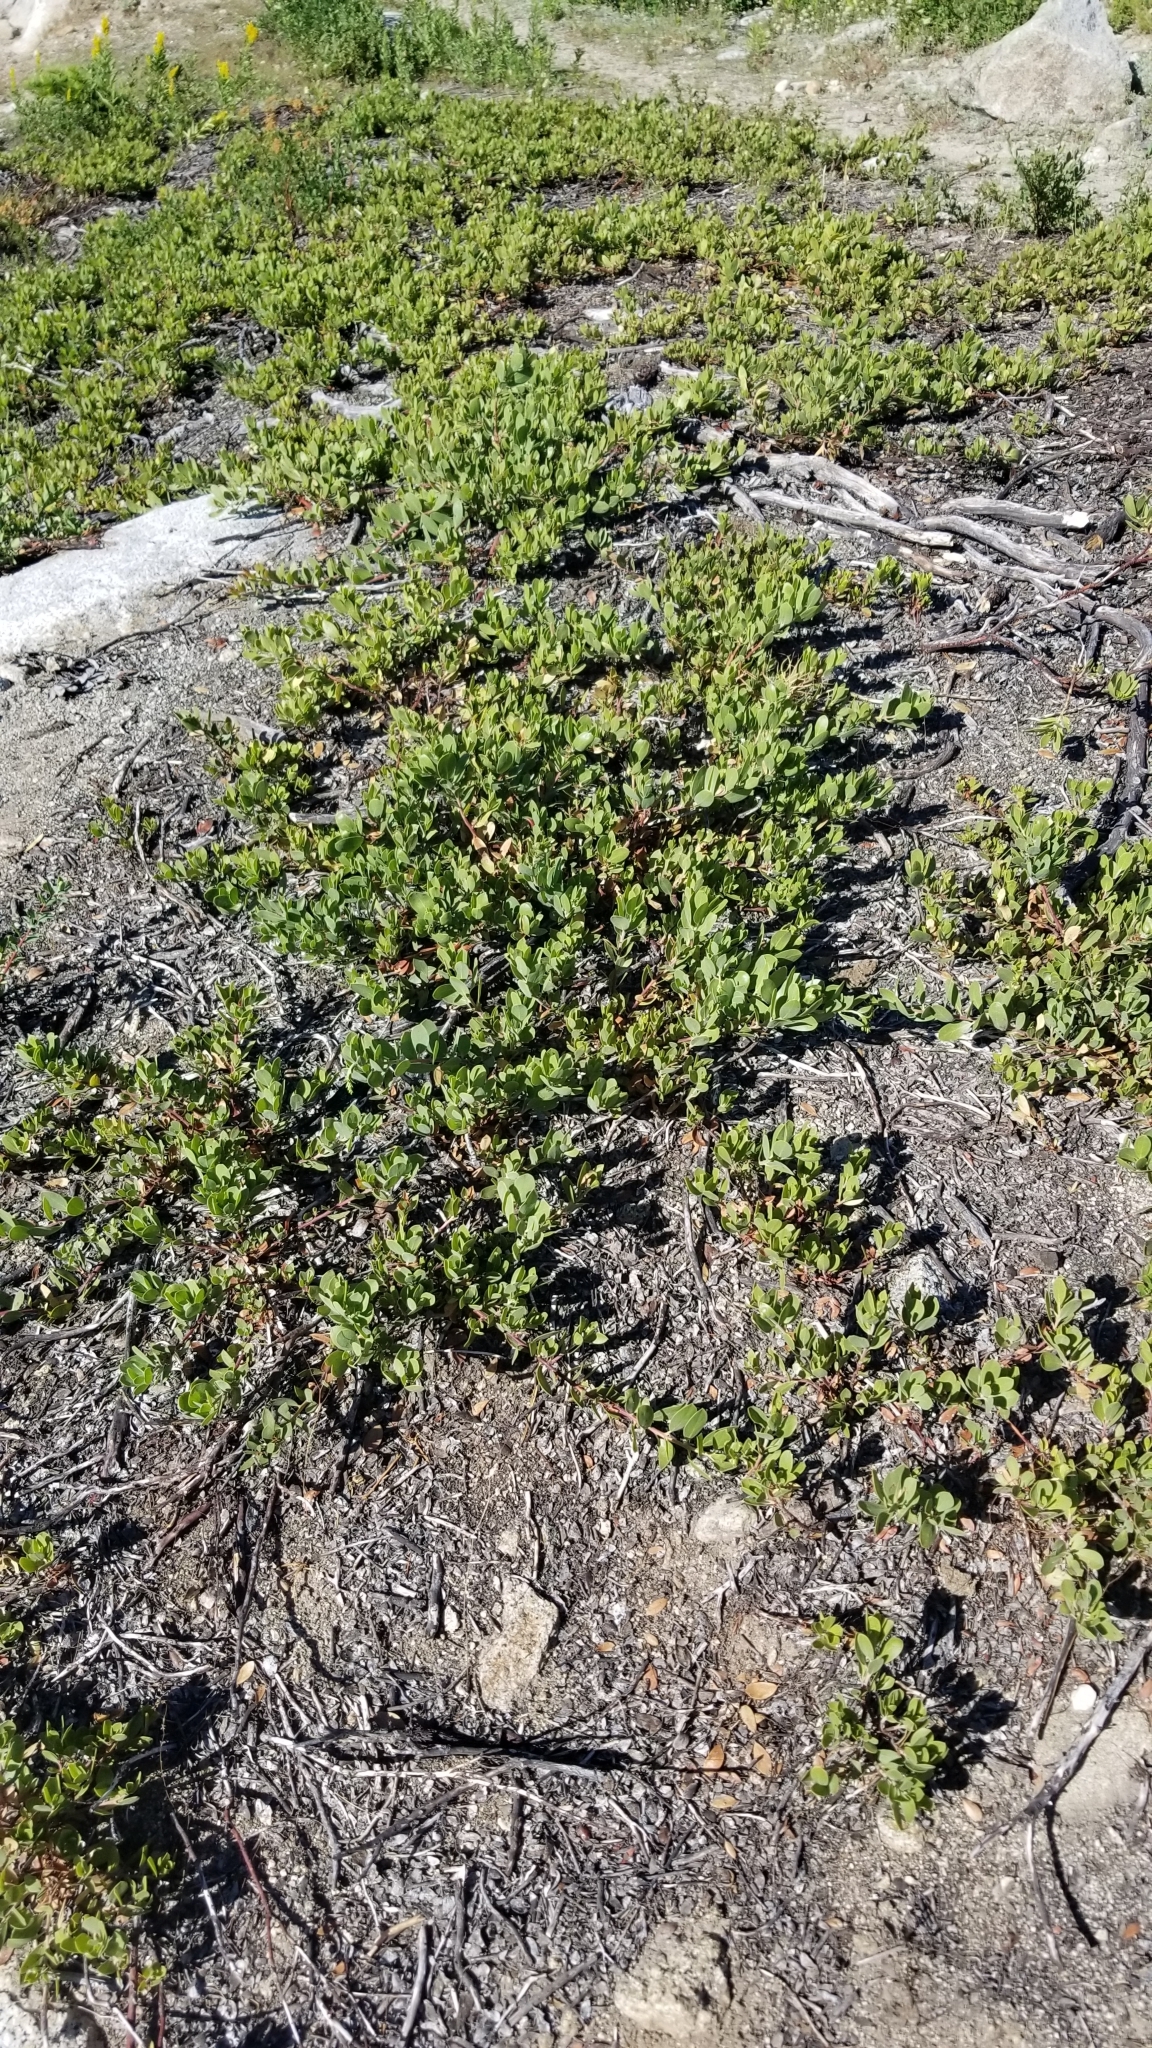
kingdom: Plantae
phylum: Tracheophyta
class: Magnoliopsida
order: Ericales
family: Ericaceae
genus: Arctostaphylos
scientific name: Arctostaphylos nevadensis
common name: Pinemat manzanita
